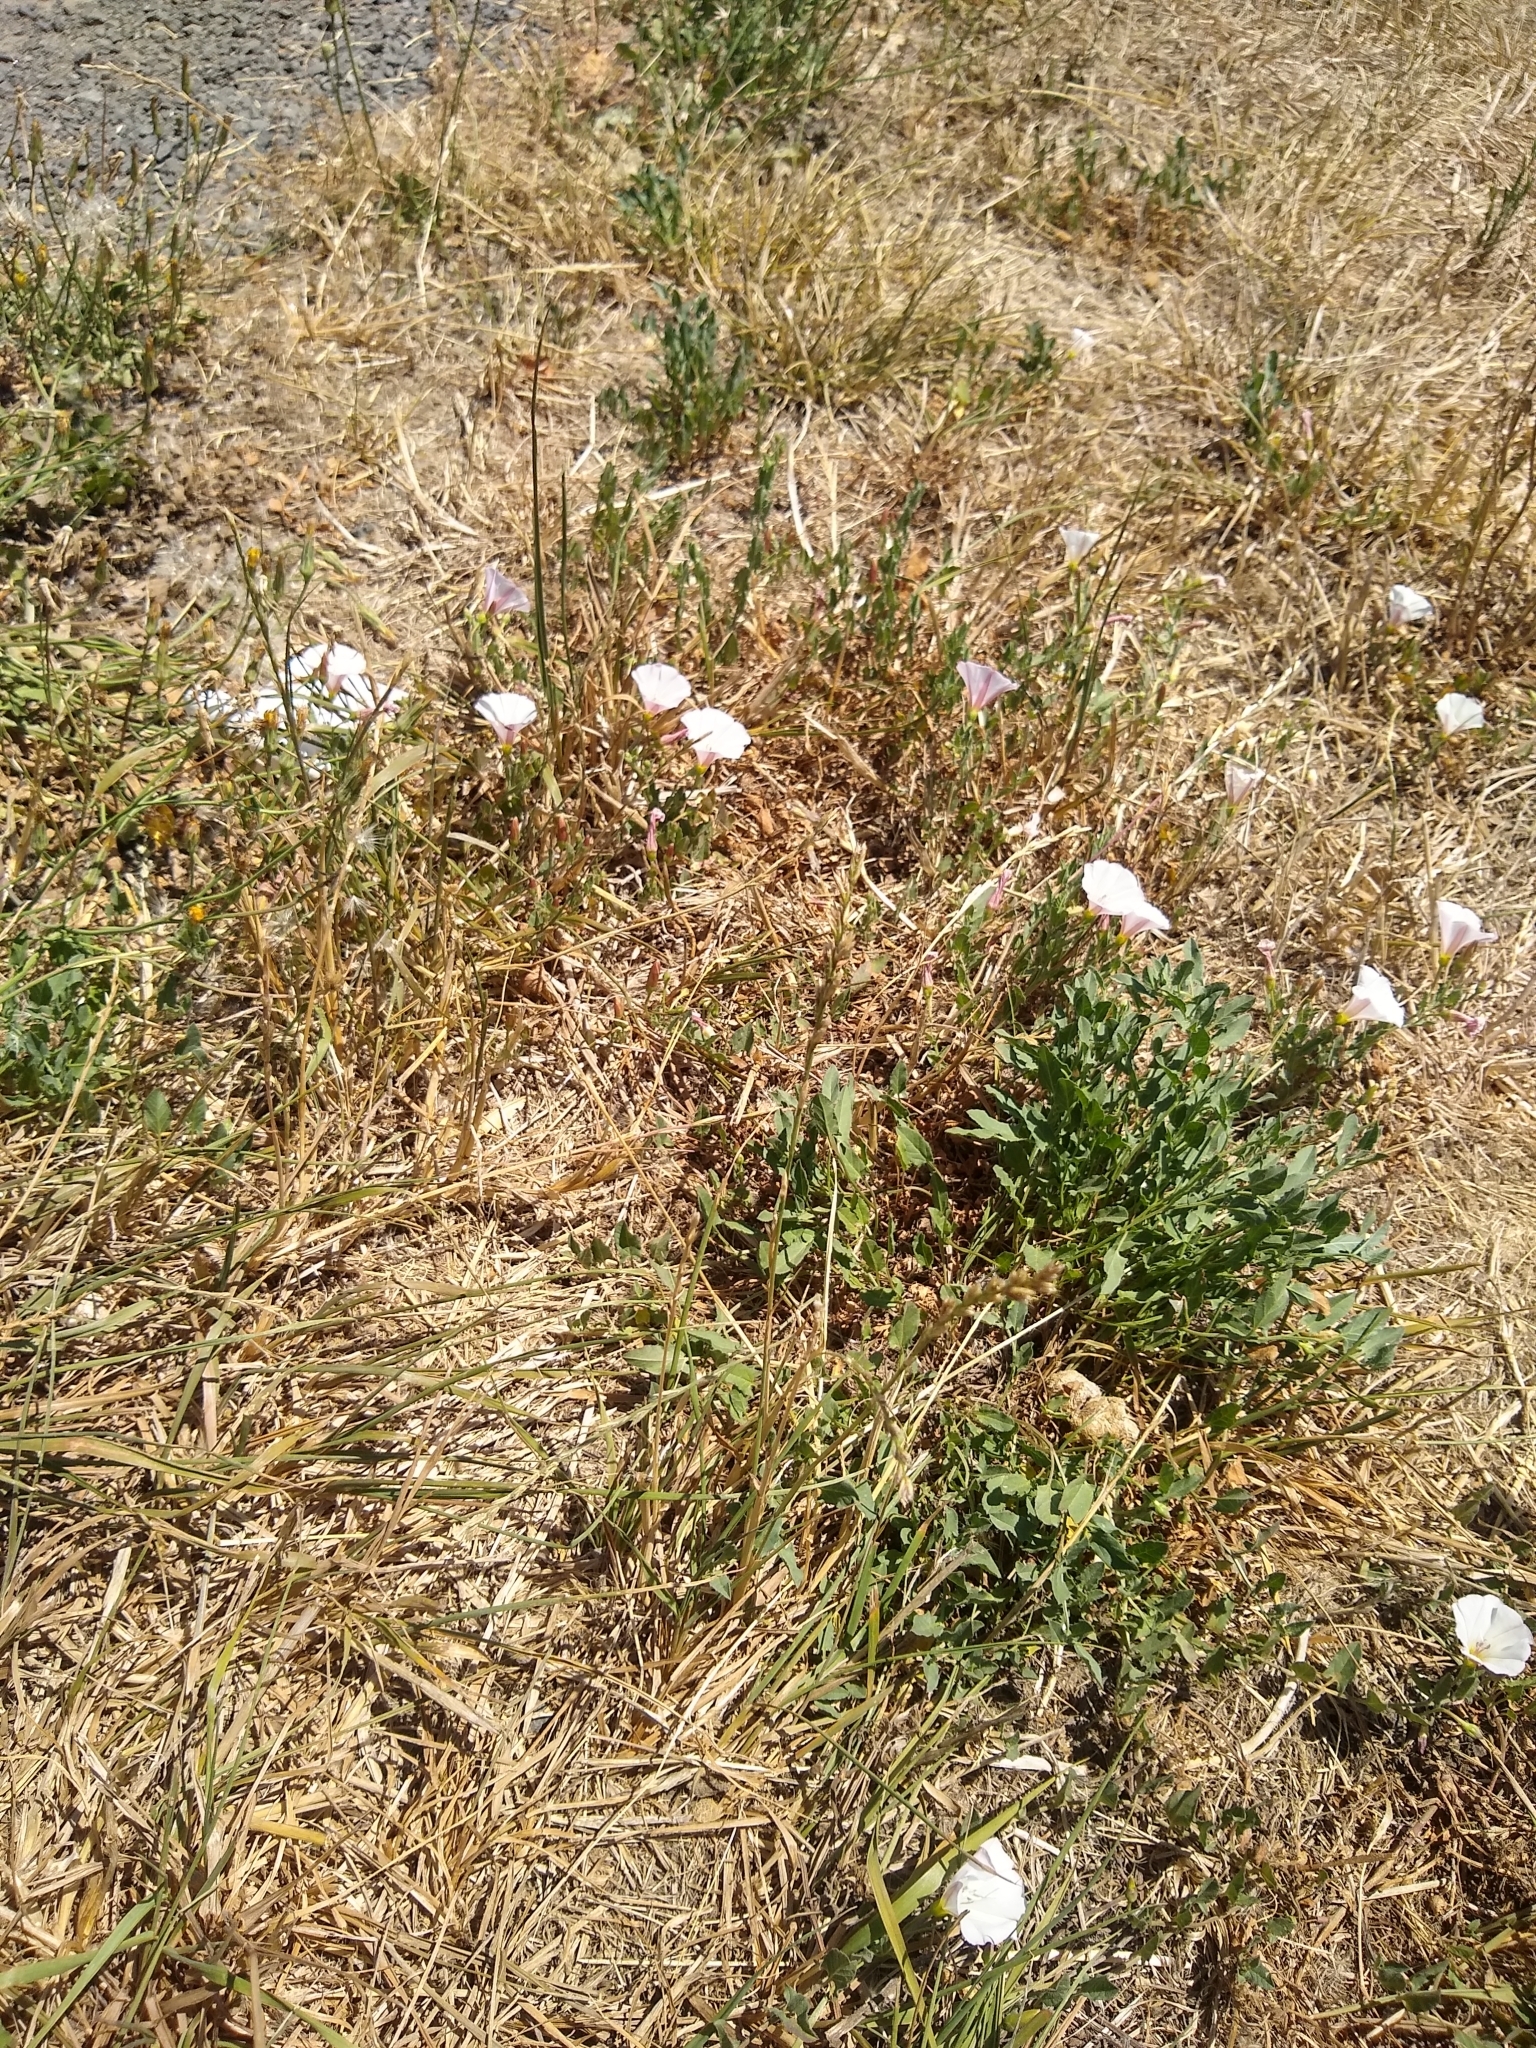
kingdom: Plantae
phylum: Tracheophyta
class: Magnoliopsida
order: Solanales
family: Convolvulaceae
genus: Convolvulus
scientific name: Convolvulus arvensis
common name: Field bindweed
